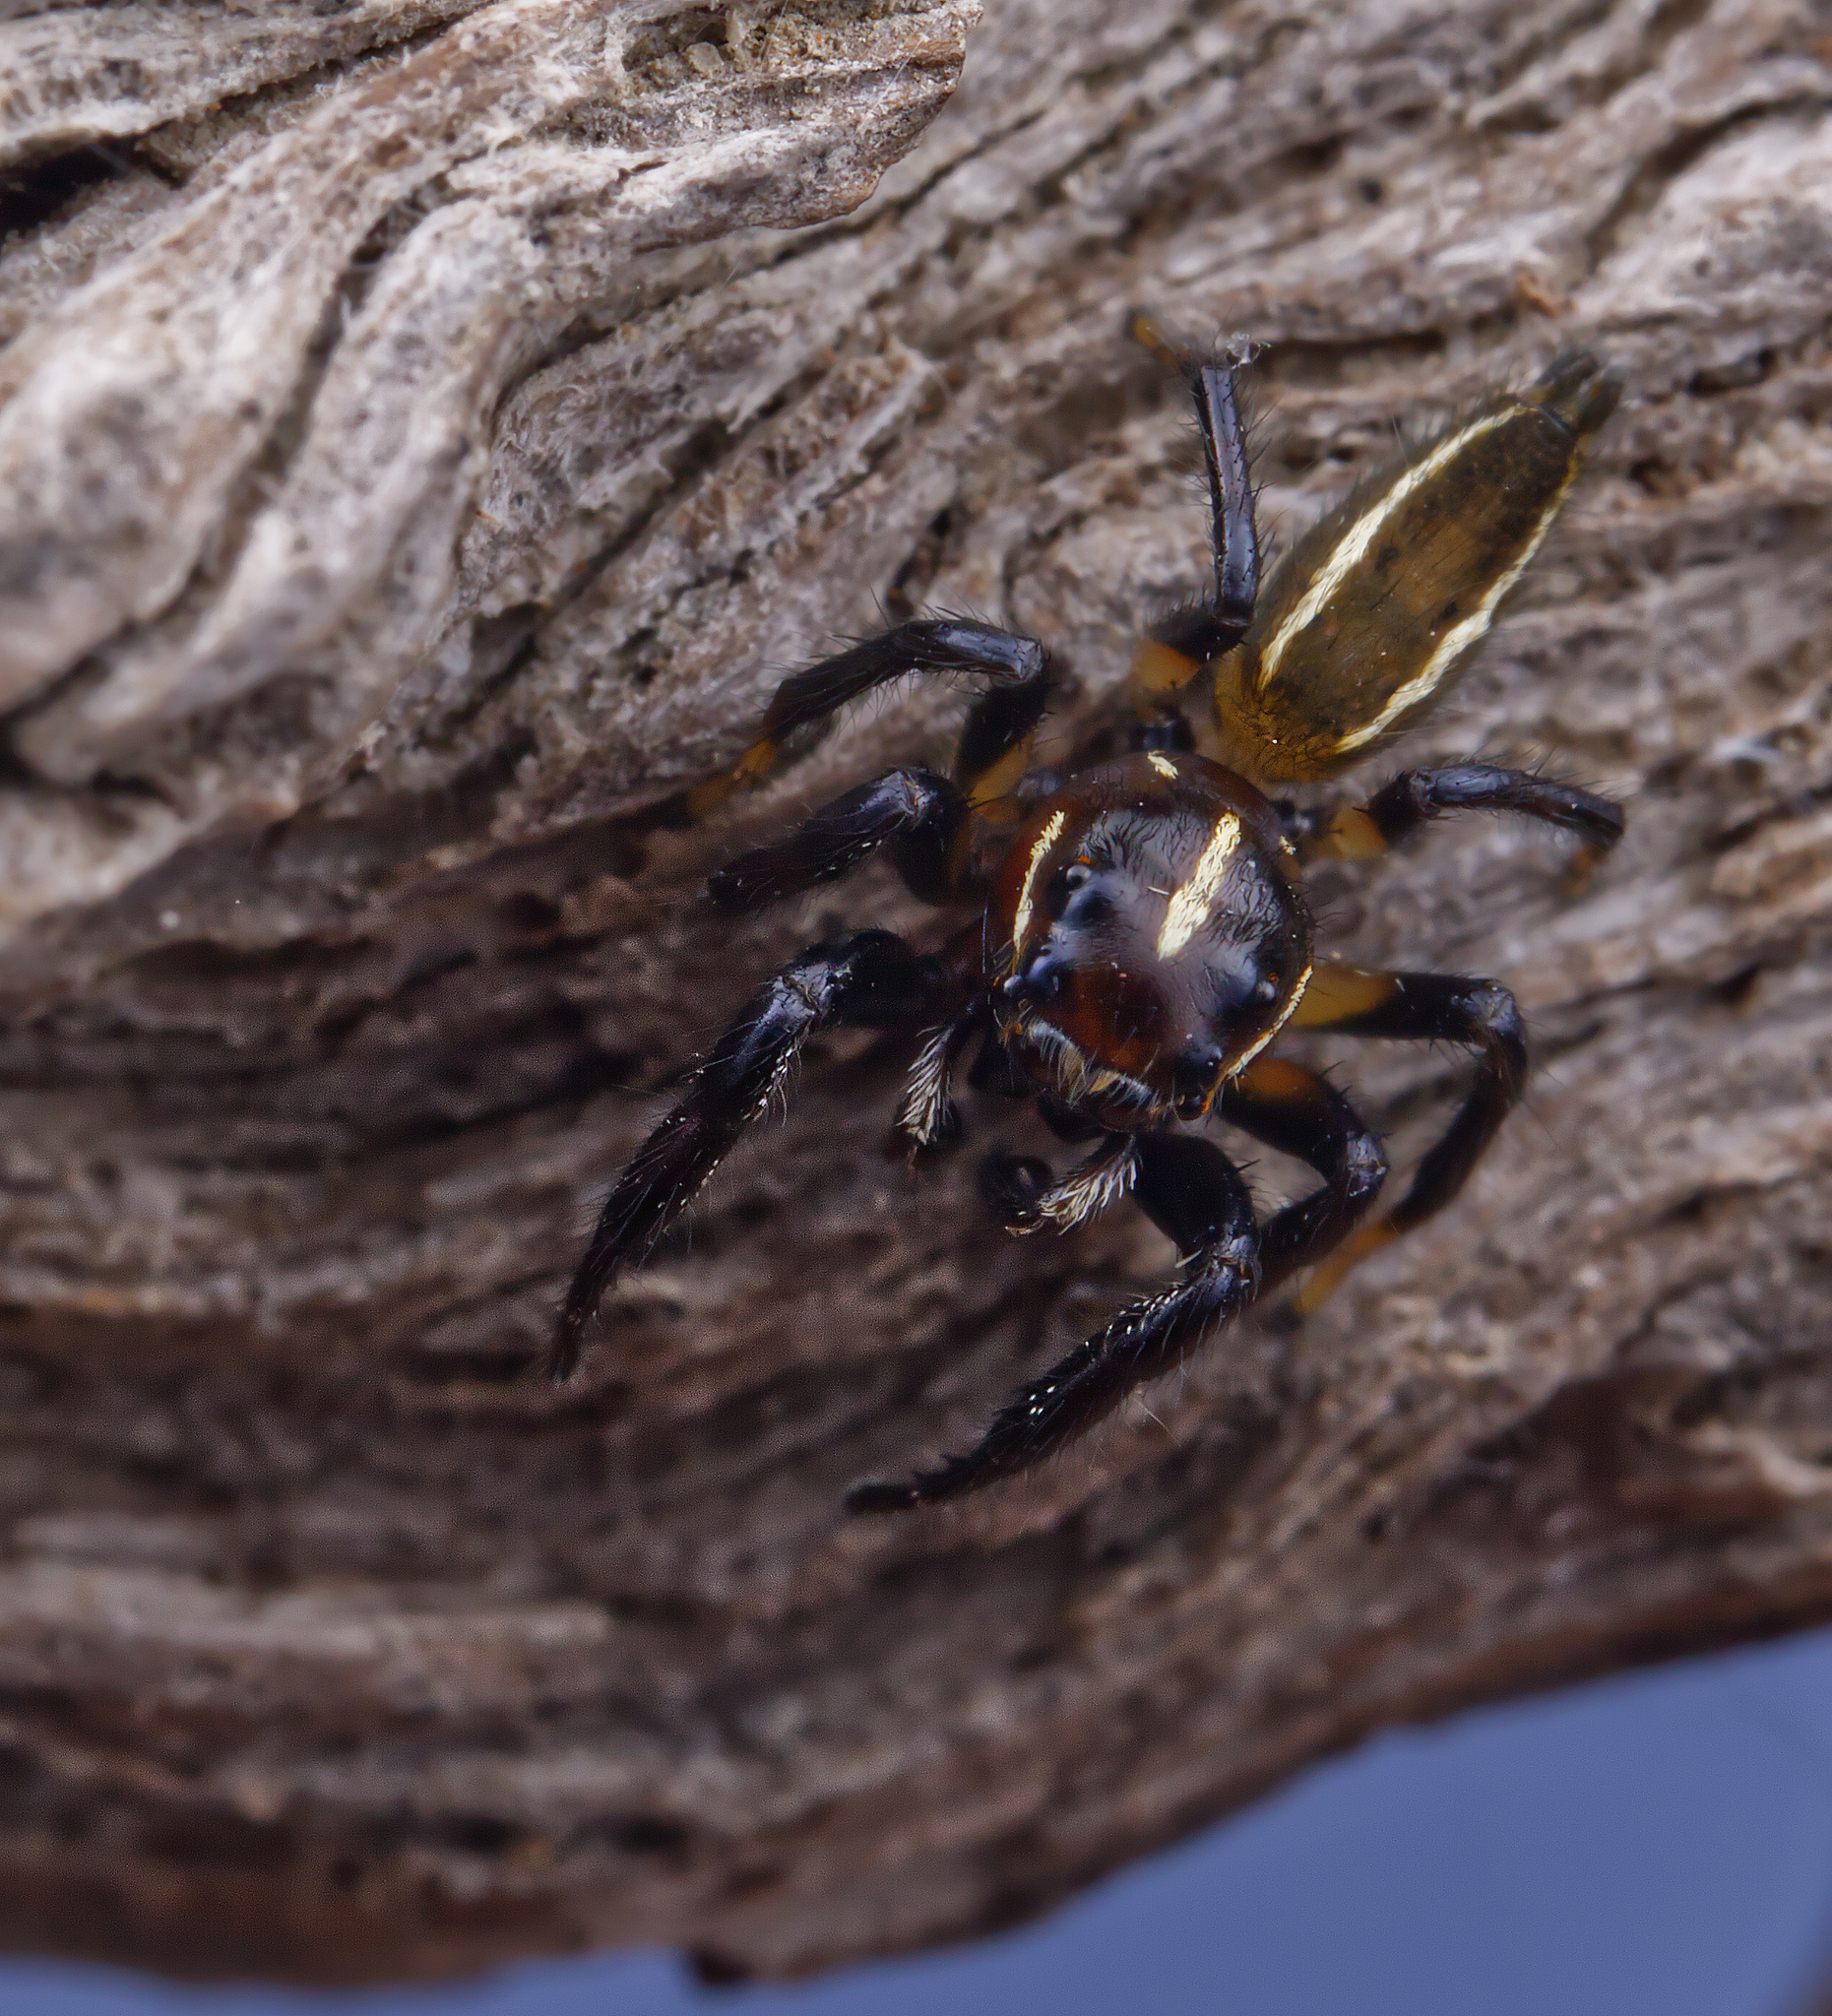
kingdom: Animalia
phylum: Arthropoda
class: Arachnida
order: Araneae
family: Salticidae
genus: Colonus
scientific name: Colonus puerperus
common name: Jumping spiders
